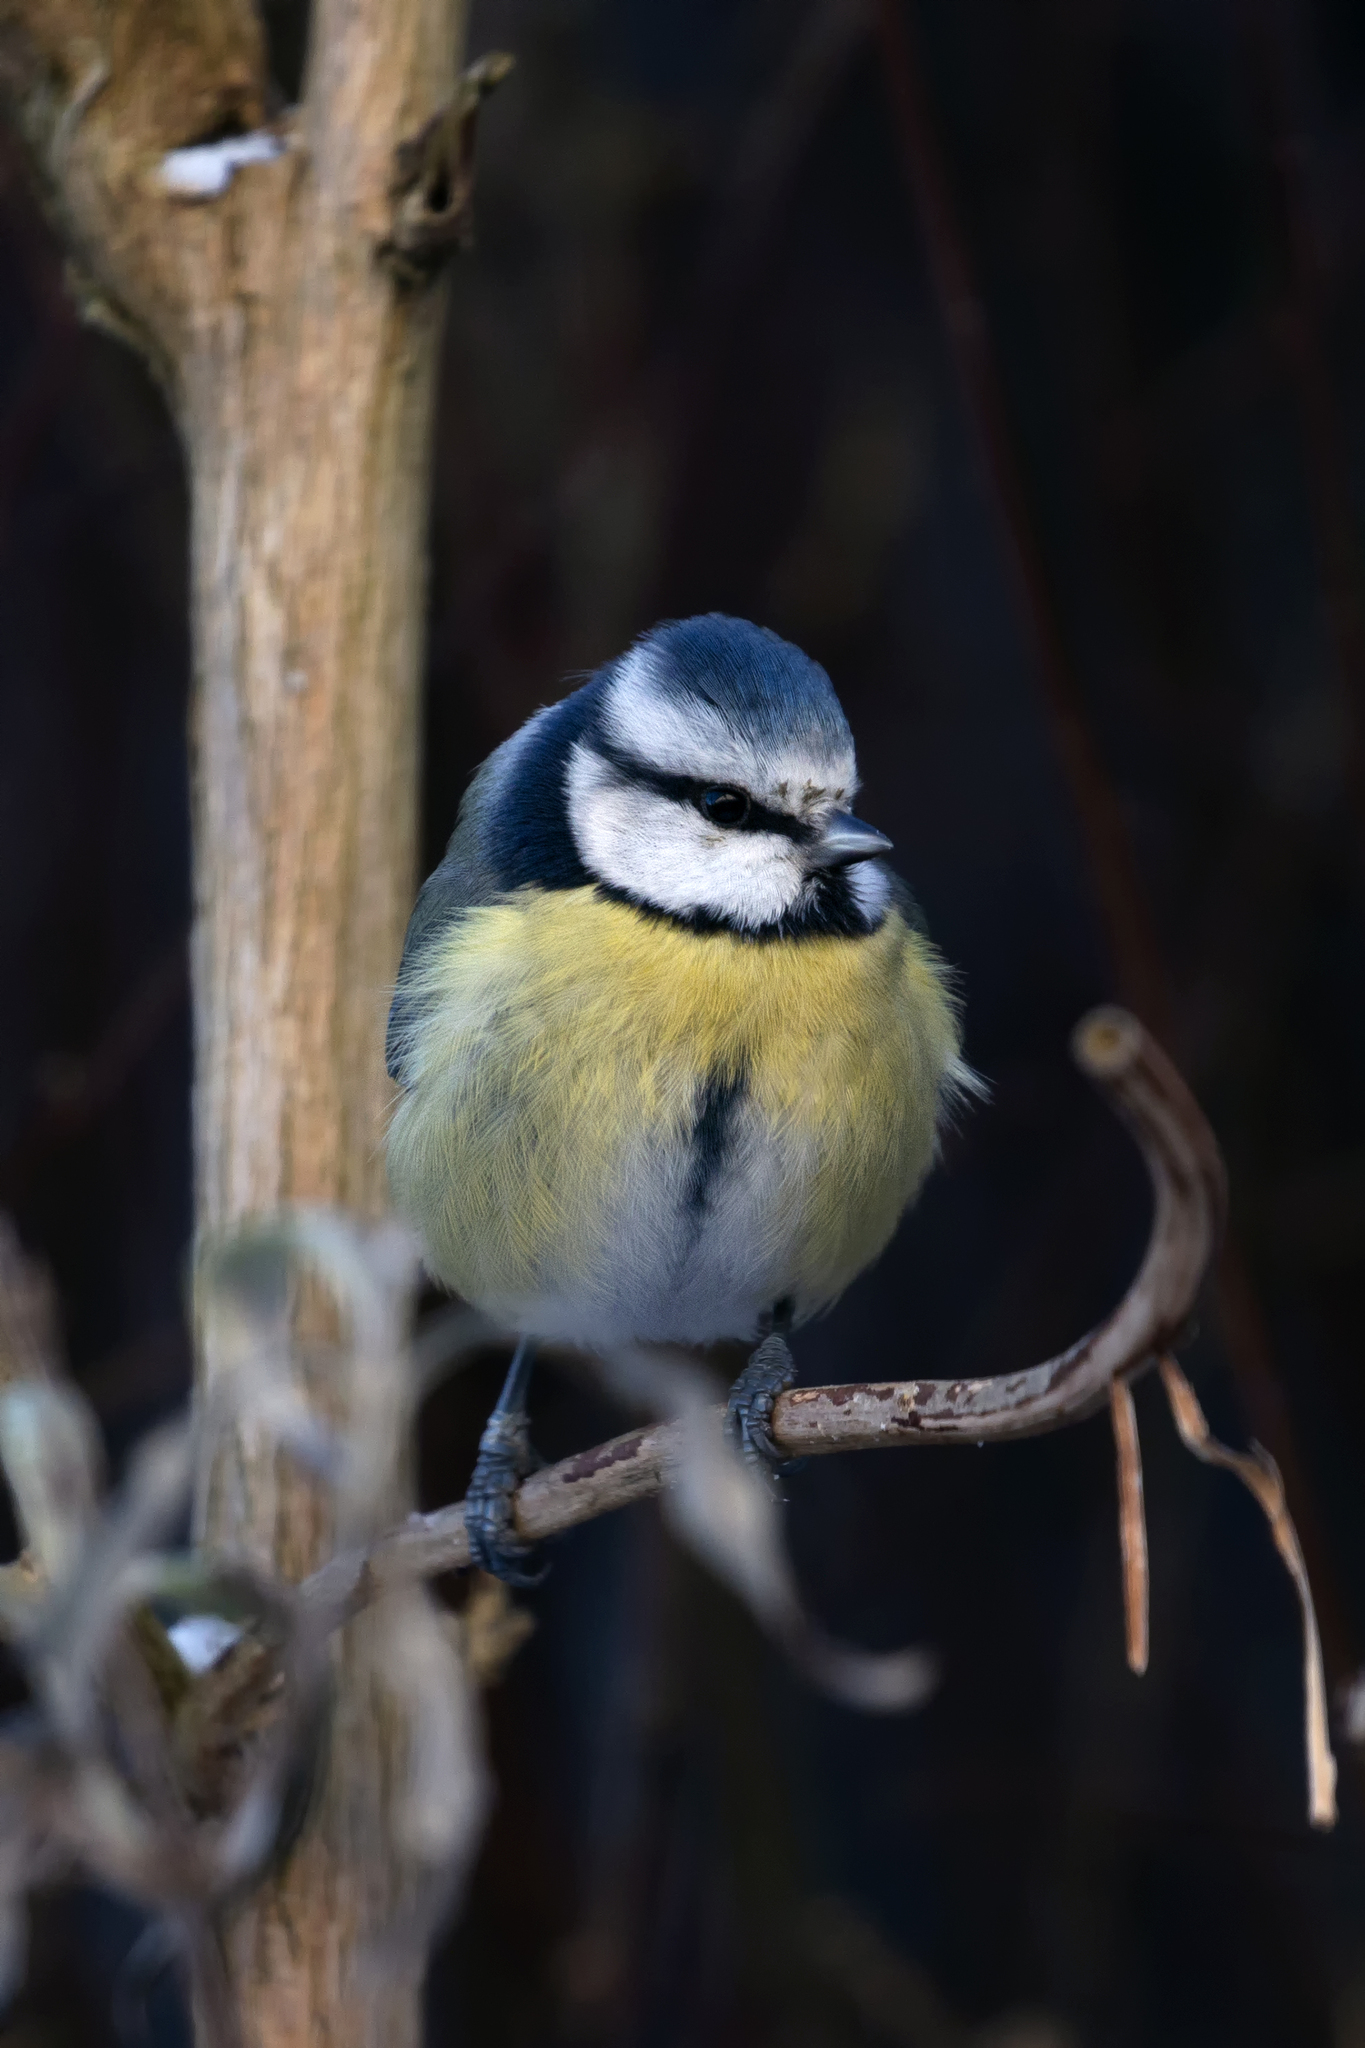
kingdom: Animalia
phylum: Chordata
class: Aves
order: Passeriformes
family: Paridae
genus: Cyanistes
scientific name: Cyanistes caeruleus
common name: Eurasian blue tit
